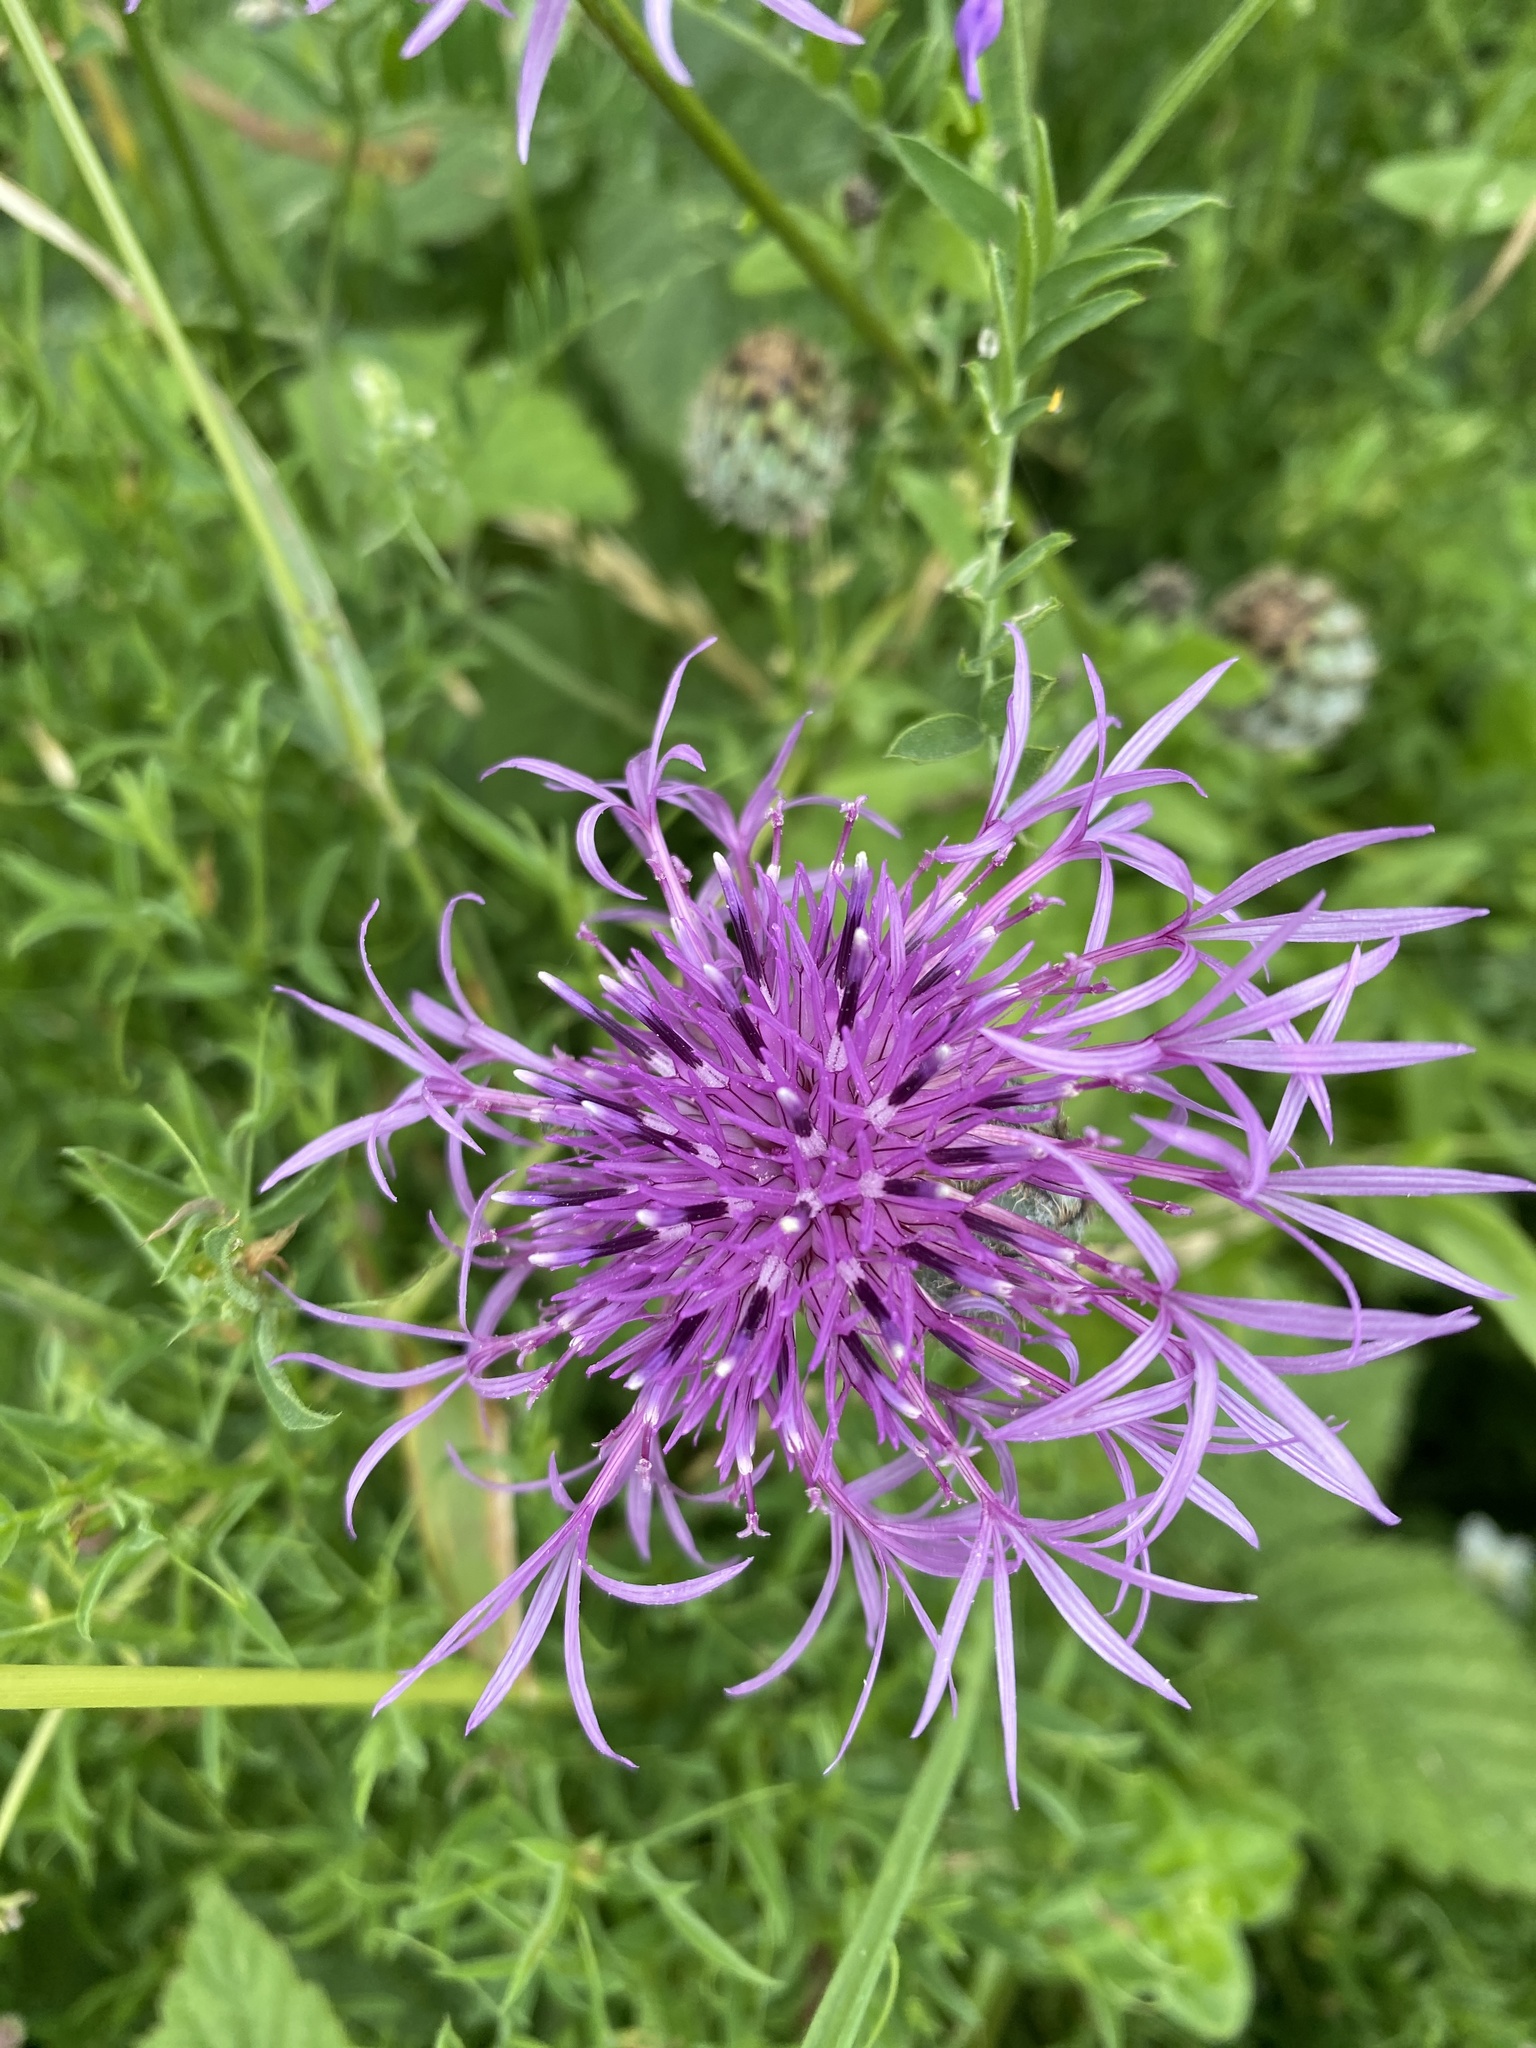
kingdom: Plantae
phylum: Tracheophyta
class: Magnoliopsida
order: Asterales
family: Asteraceae
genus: Centaurea
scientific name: Centaurea scabiosa
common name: Greater knapweed
